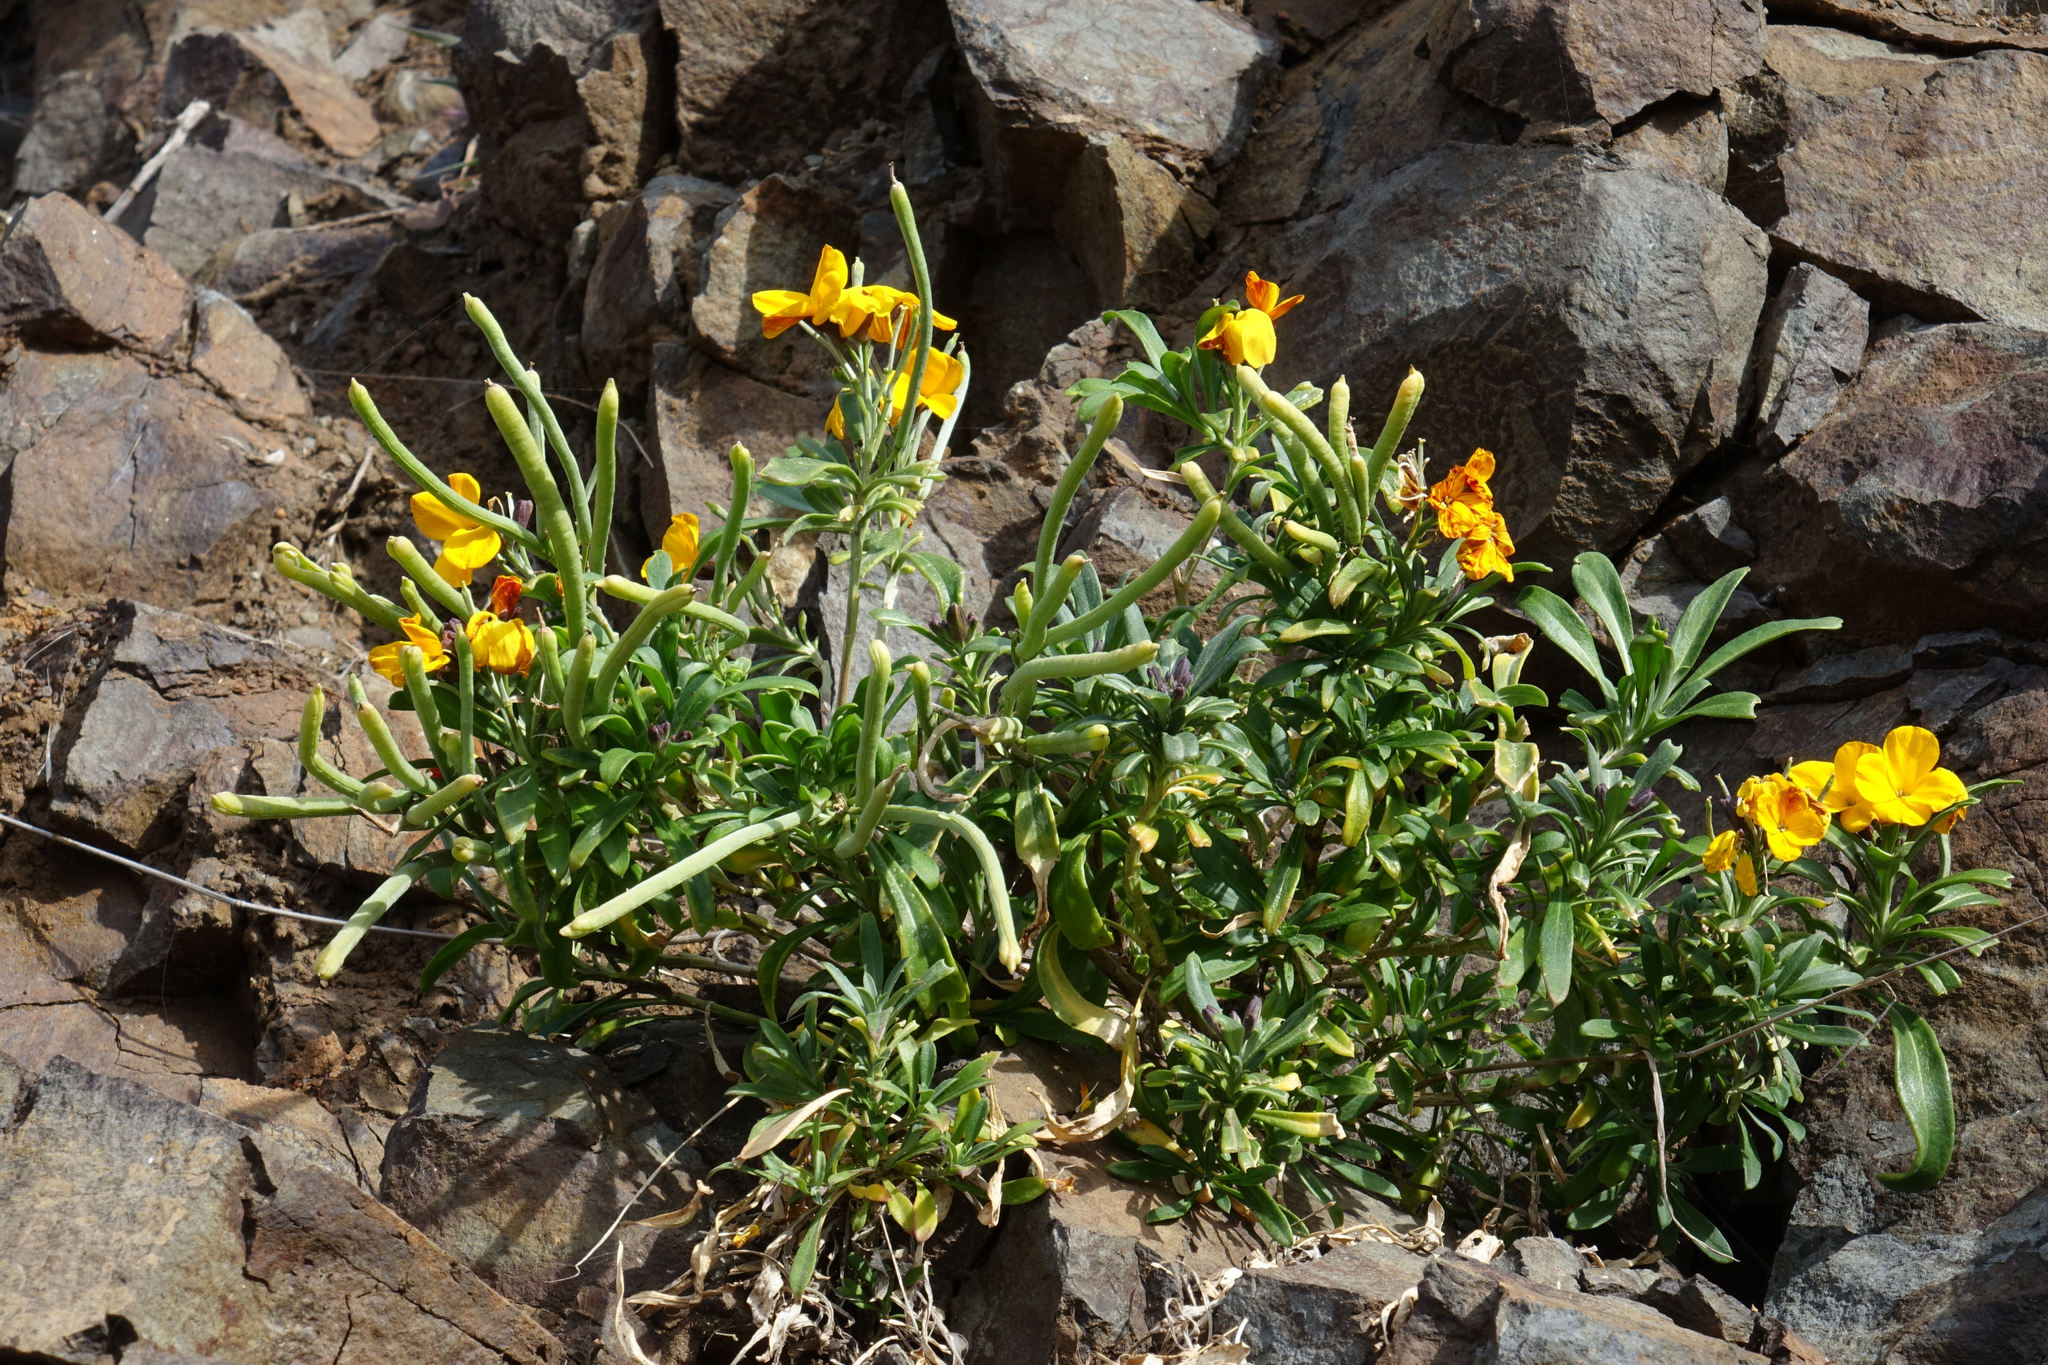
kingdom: Plantae
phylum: Tracheophyta
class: Magnoliopsida
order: Brassicales
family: Brassicaceae
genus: Erysimum
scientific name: Erysimum cheiri
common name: Wallflower
